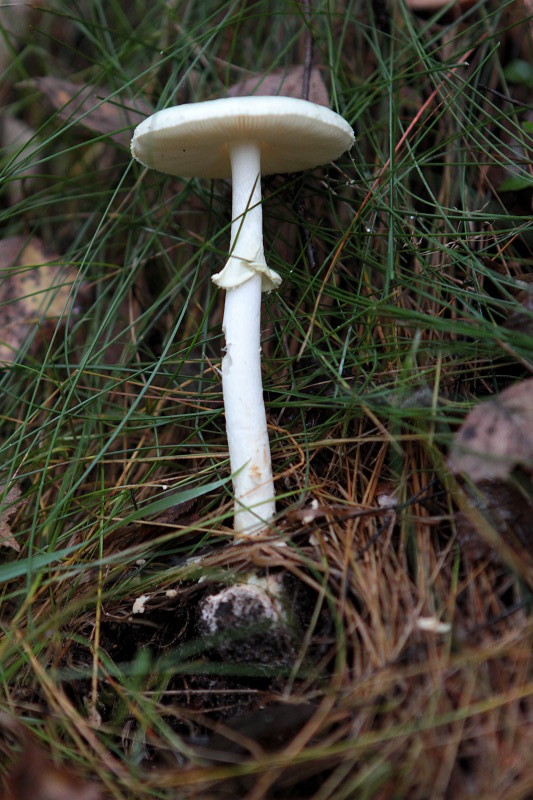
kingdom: Fungi
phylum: Basidiomycota
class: Agaricomycetes
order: Agaricales
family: Amanitaceae
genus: Amanita
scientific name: Amanita citrina
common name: False death-cap
